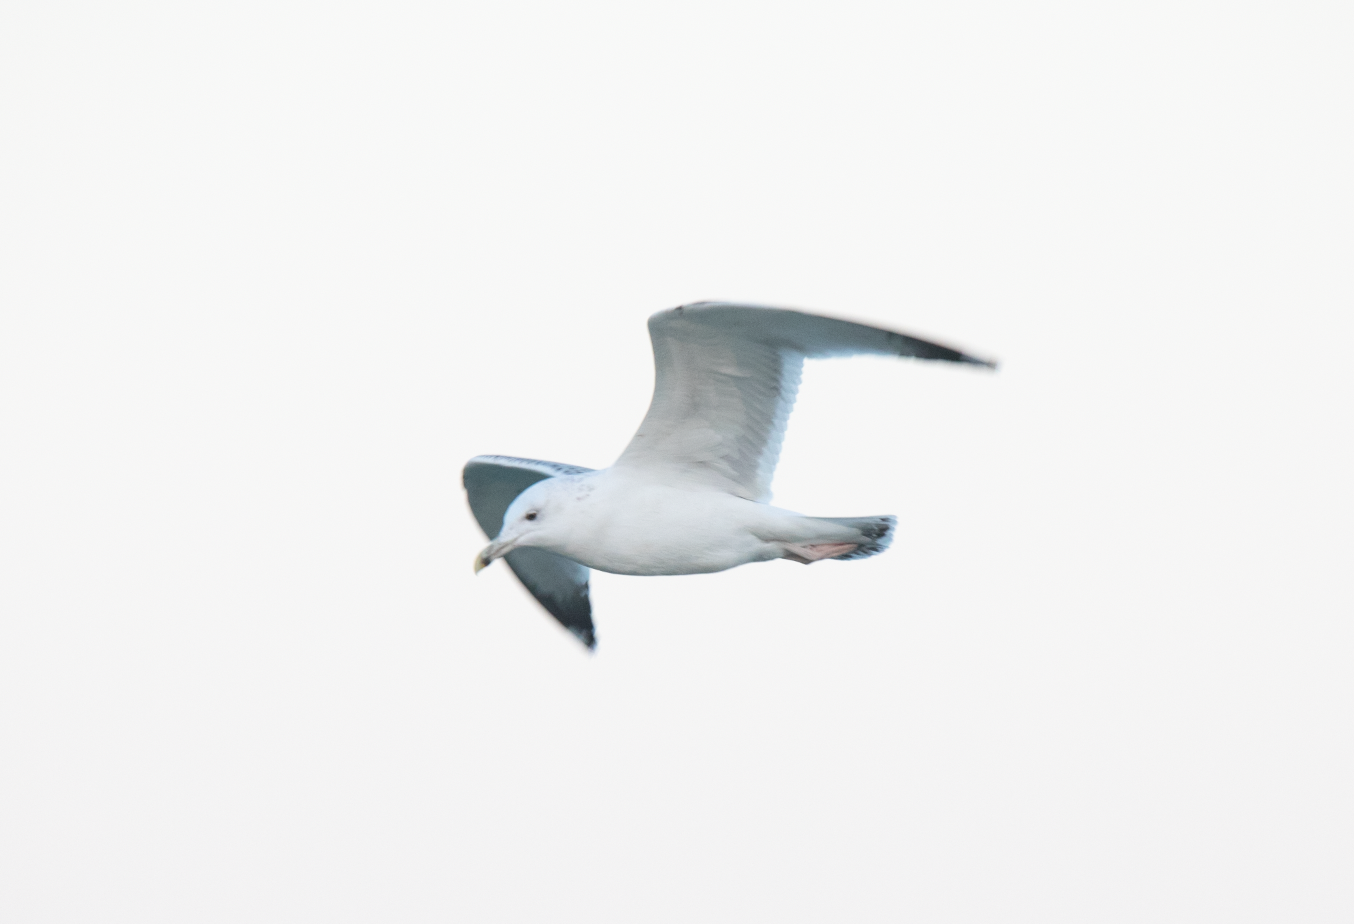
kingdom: Animalia
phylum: Chordata
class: Aves
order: Charadriiformes
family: Laridae
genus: Larus
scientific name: Larus cachinnans
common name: Caspian gull
